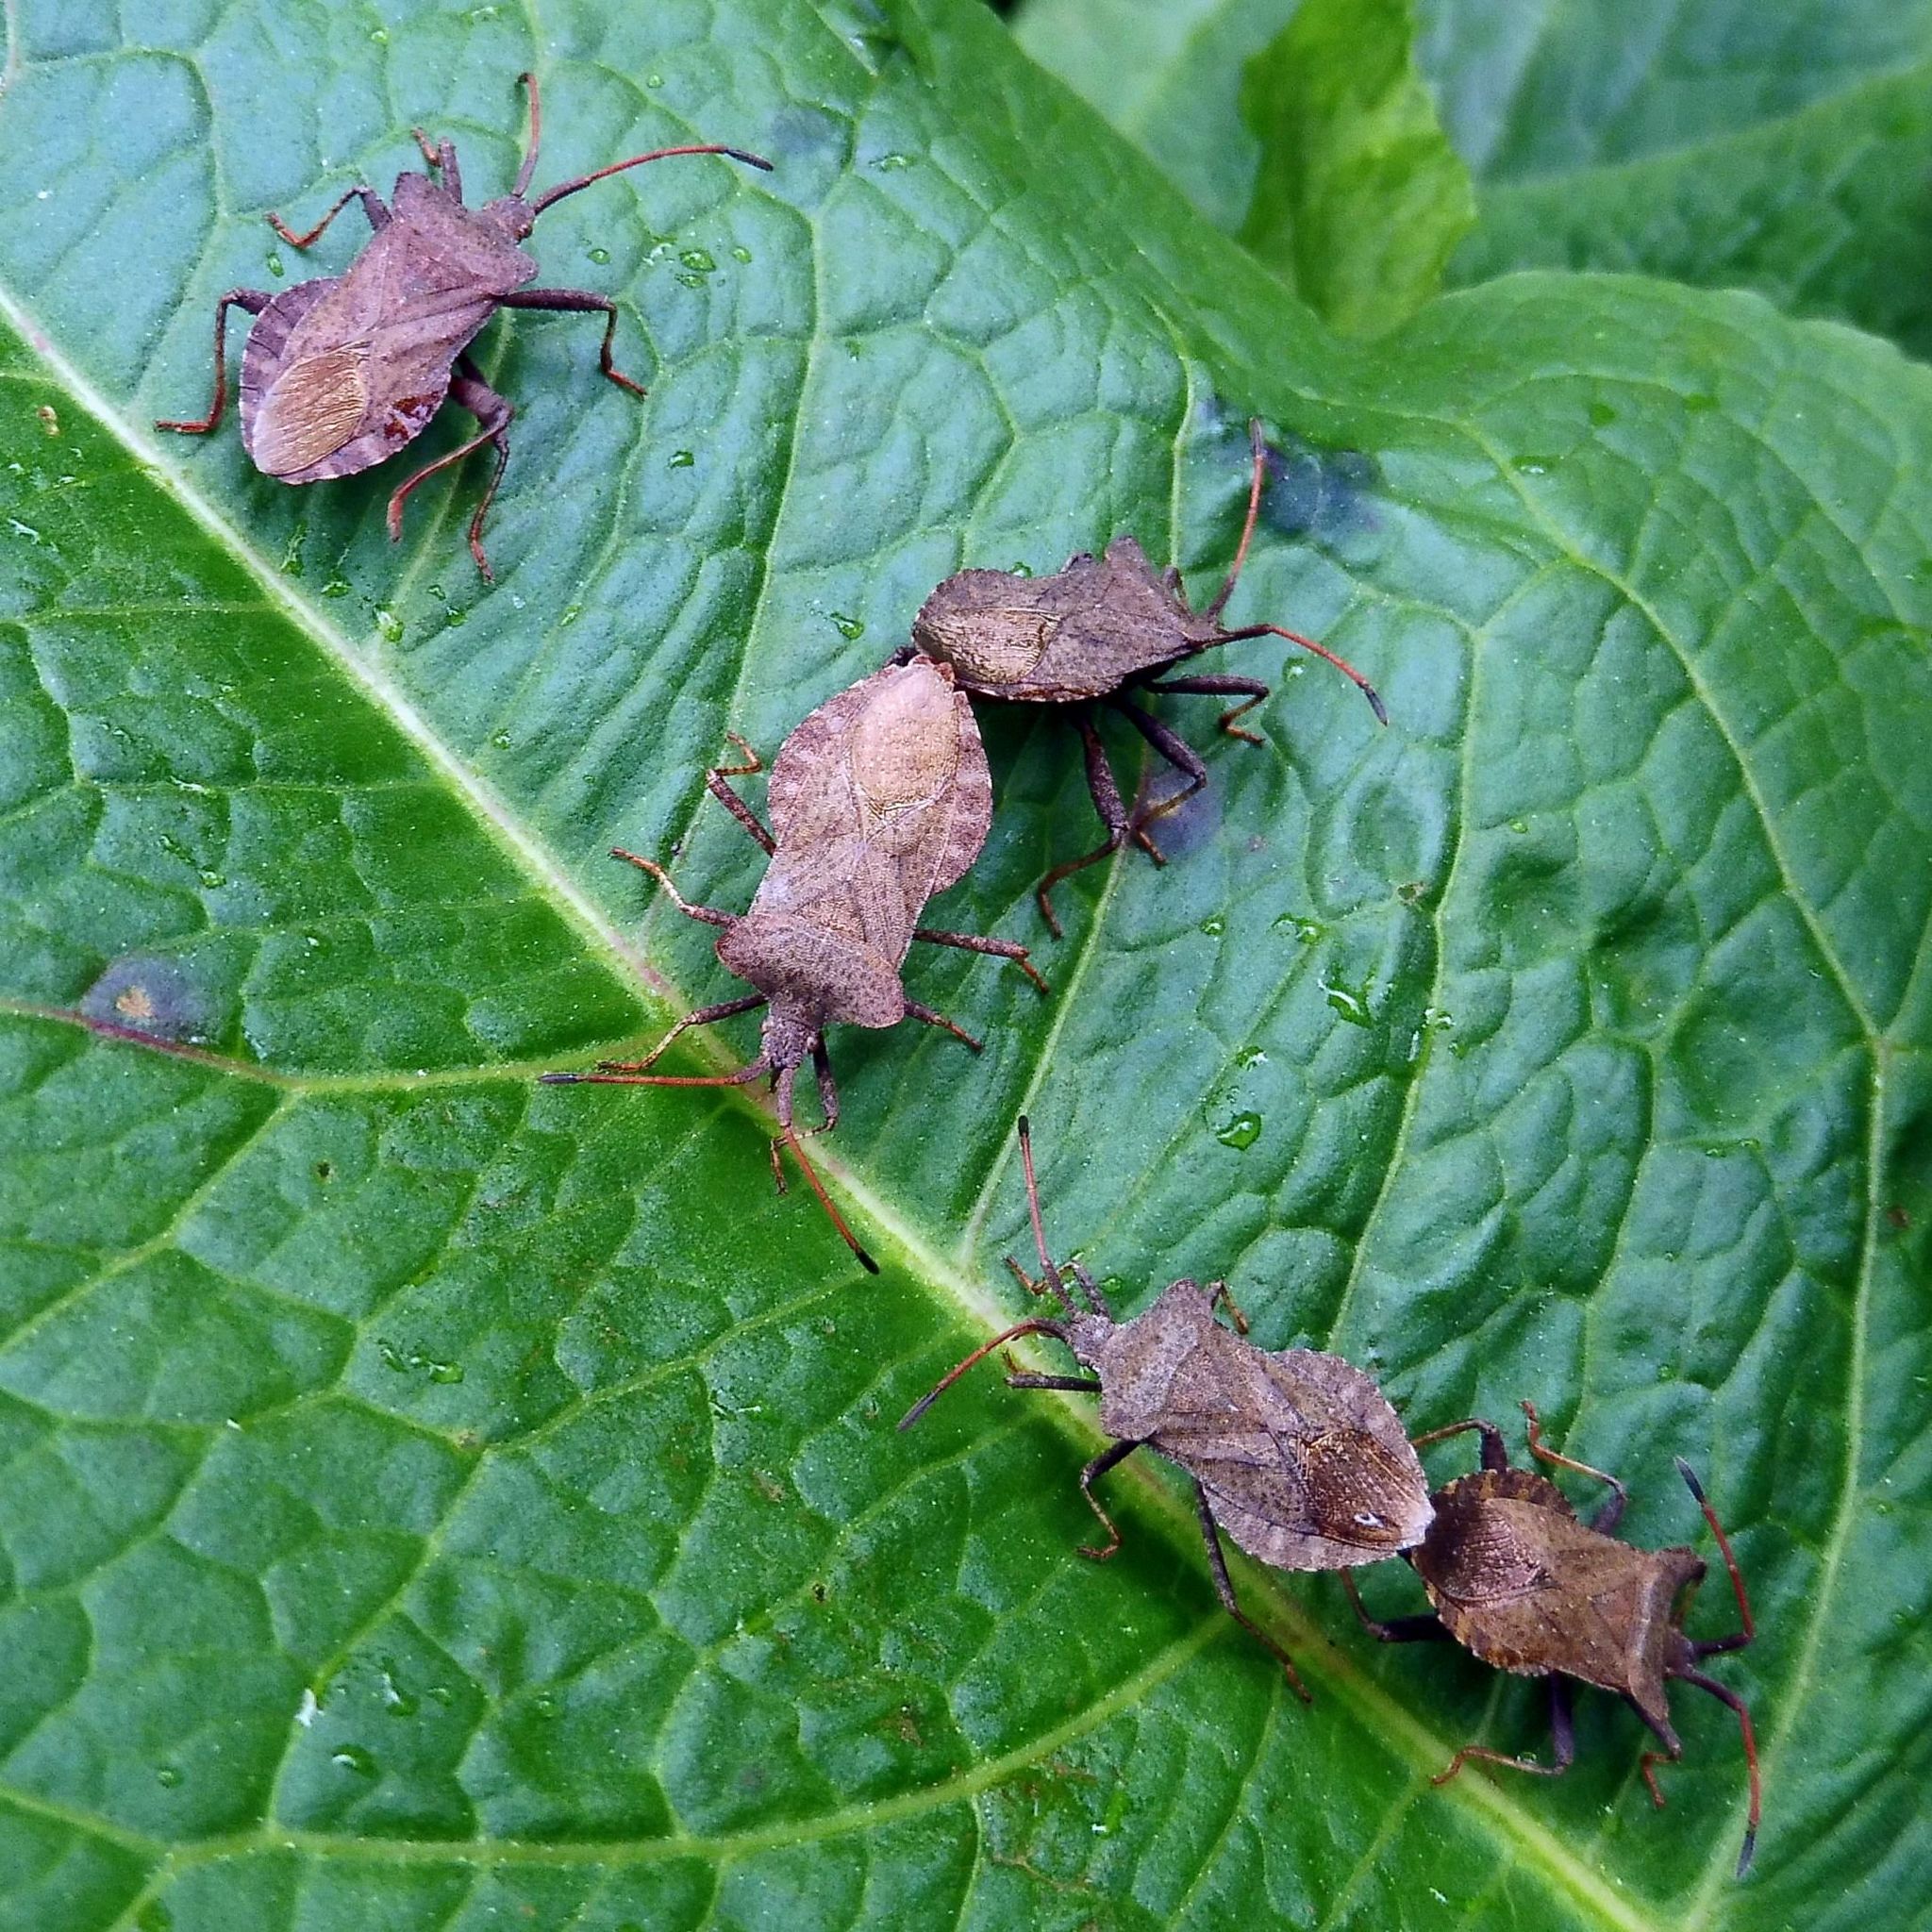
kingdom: Animalia
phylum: Arthropoda
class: Insecta
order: Hemiptera
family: Coreidae
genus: Coreus
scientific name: Coreus marginatus
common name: Dock bug
